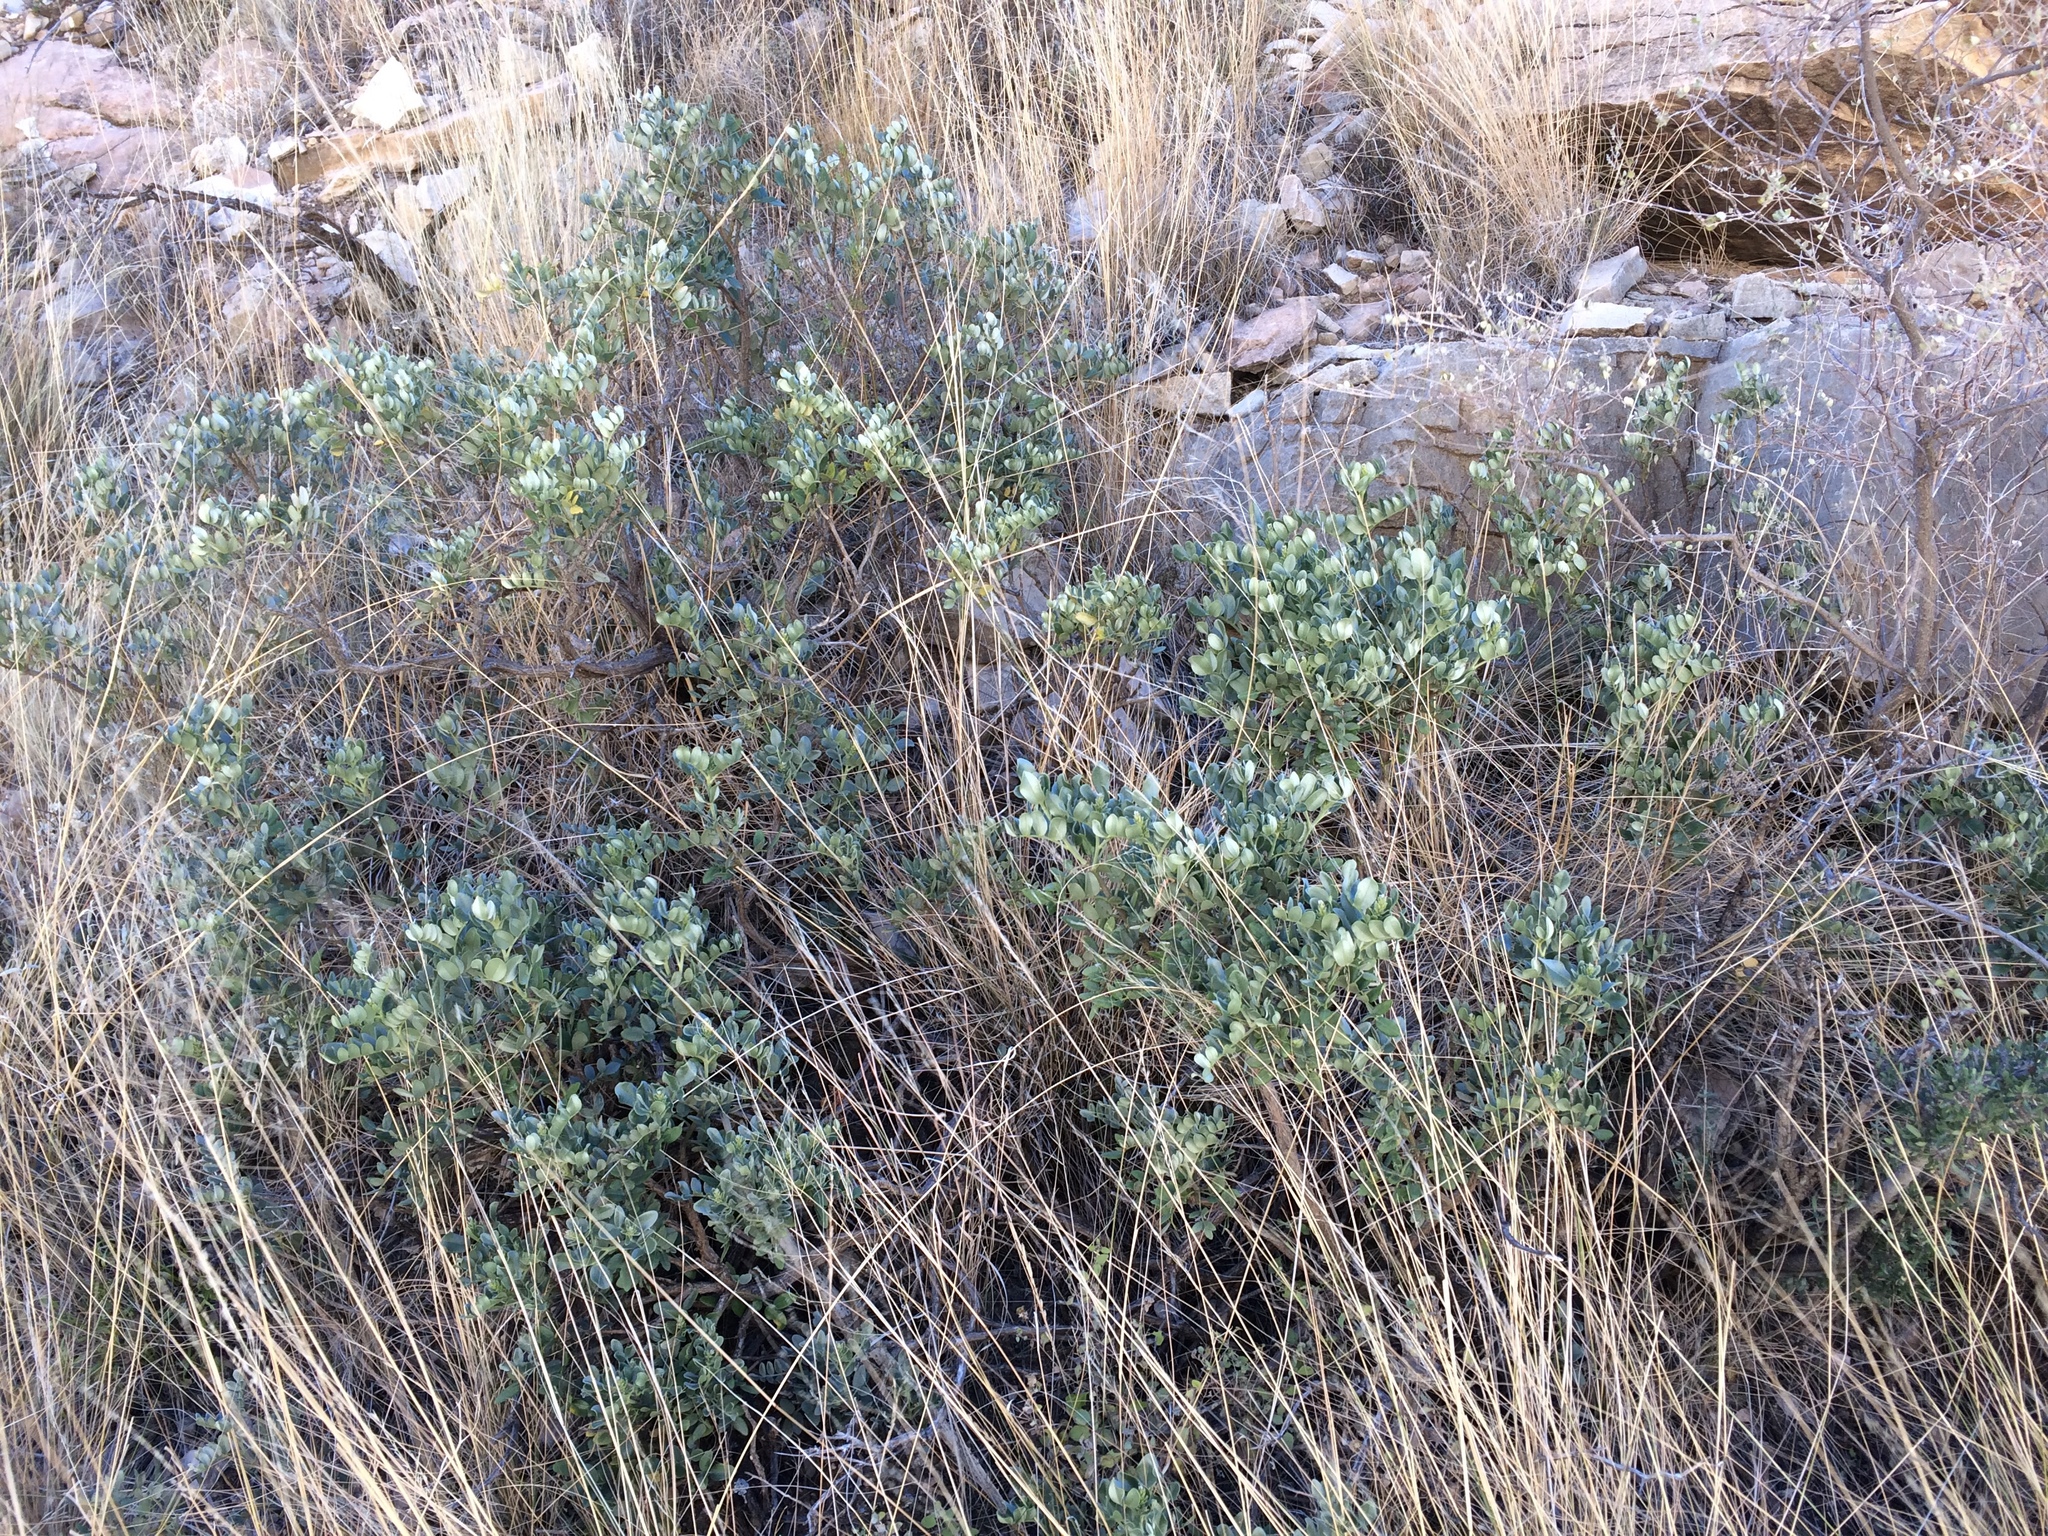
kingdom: Plantae
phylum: Tracheophyta
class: Magnoliopsida
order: Fabales
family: Fabaceae
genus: Dermatophyllum
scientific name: Dermatophyllum gypsophilum
